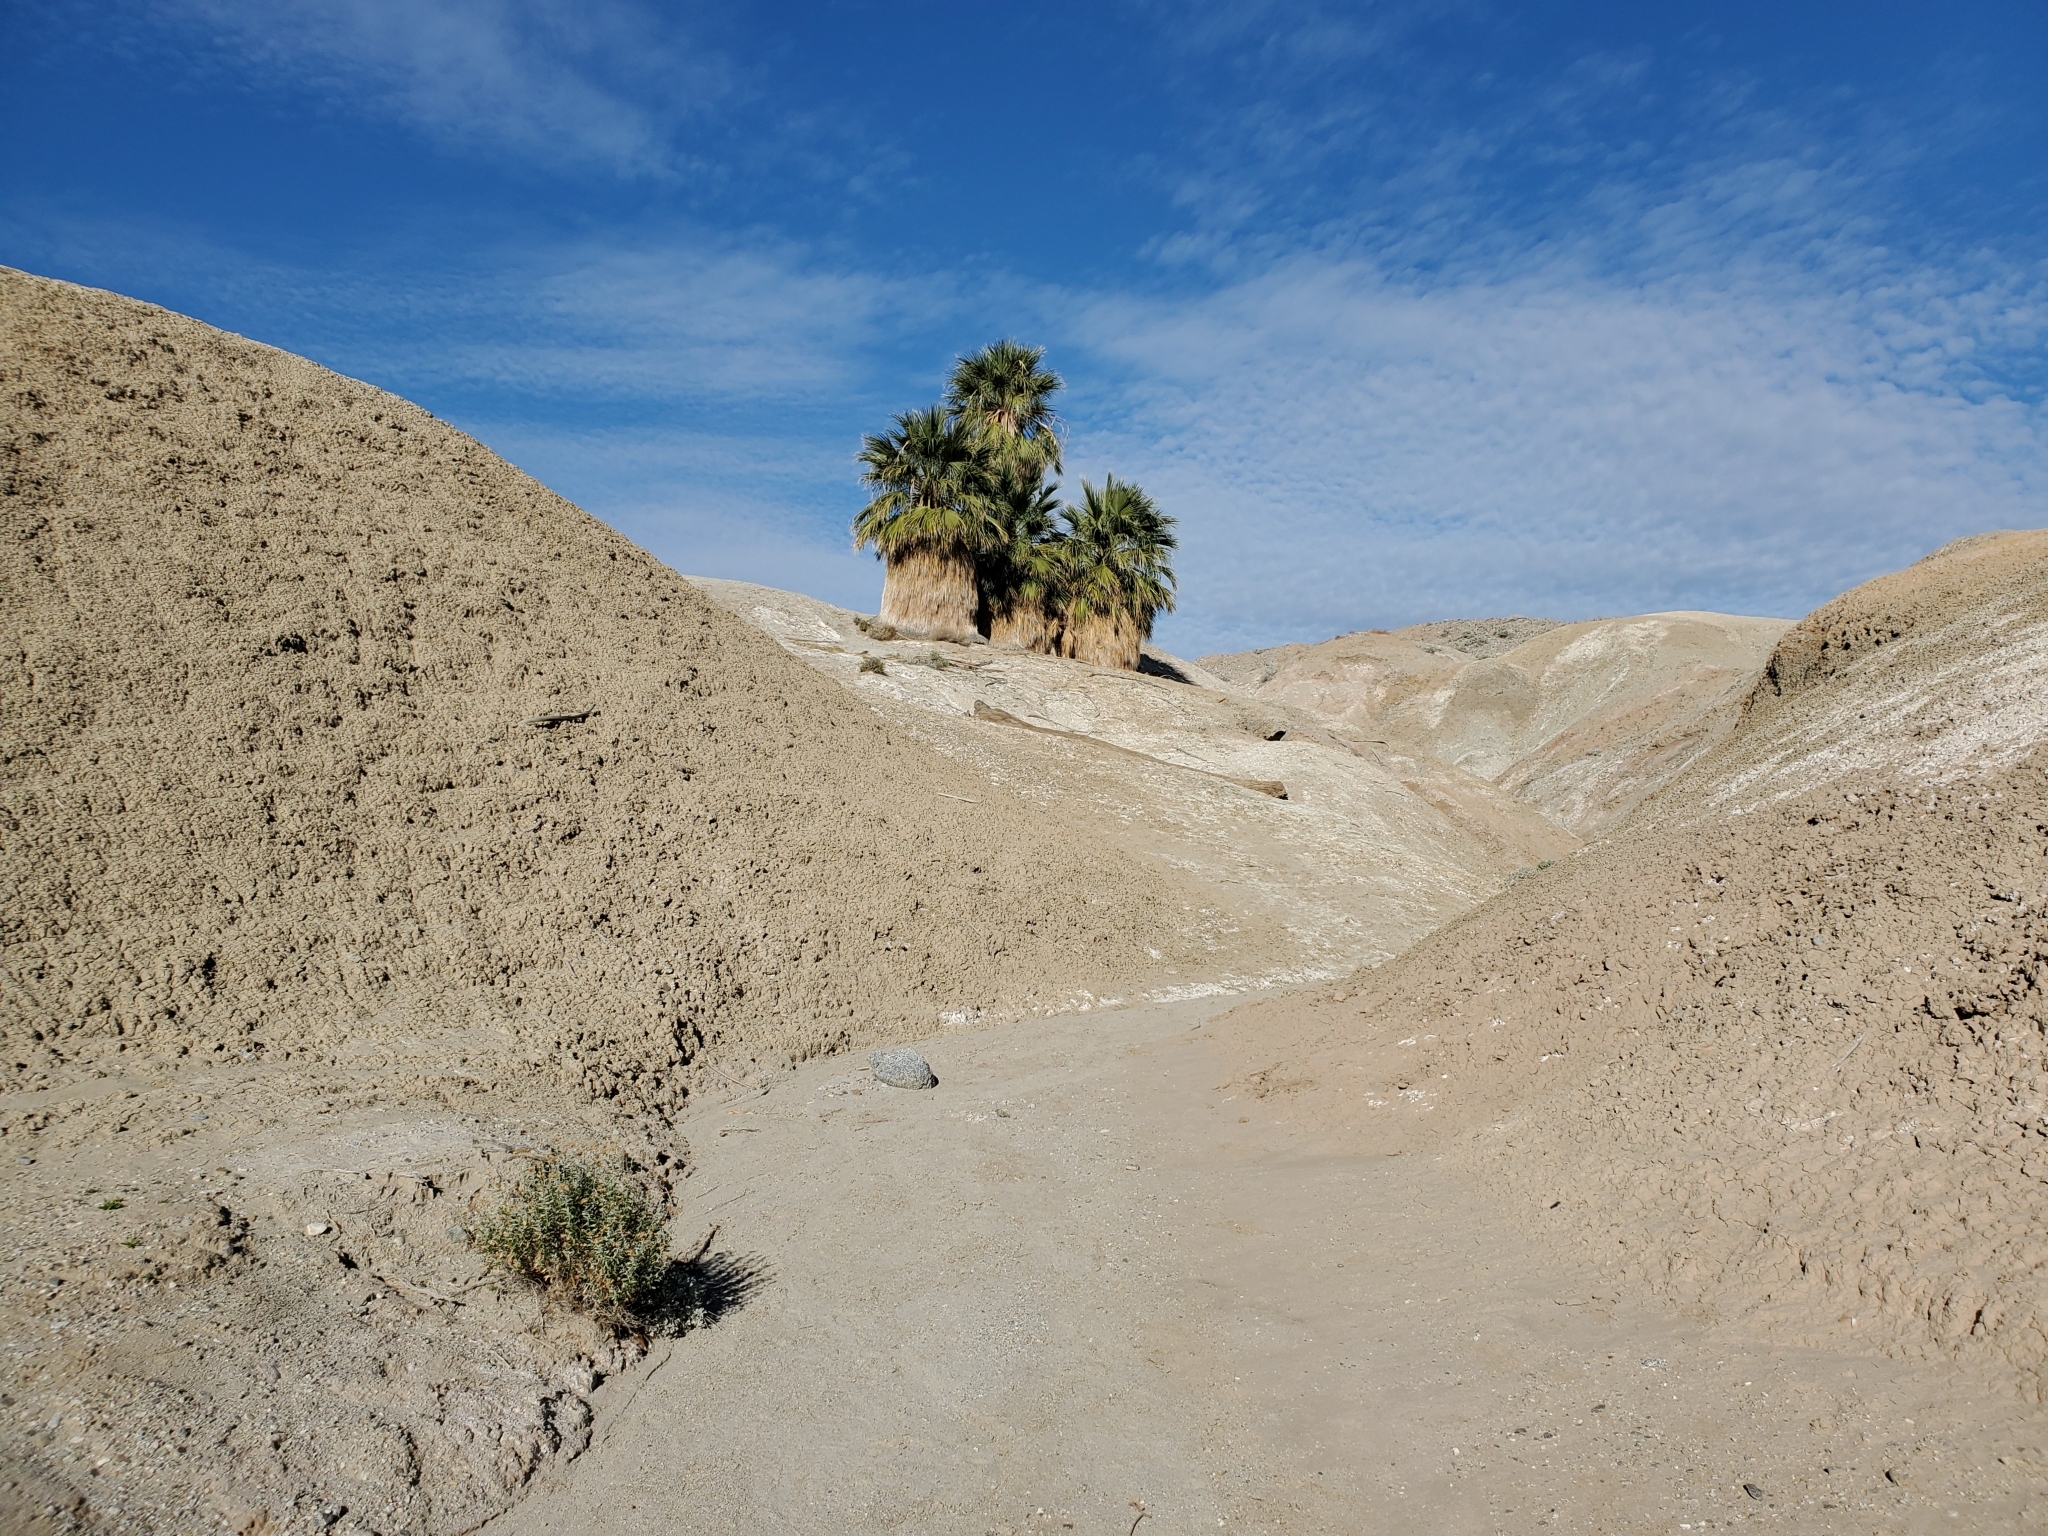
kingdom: Plantae
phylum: Tracheophyta
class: Liliopsida
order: Arecales
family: Arecaceae
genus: Washingtonia
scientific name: Washingtonia filifera
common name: California fan palm
